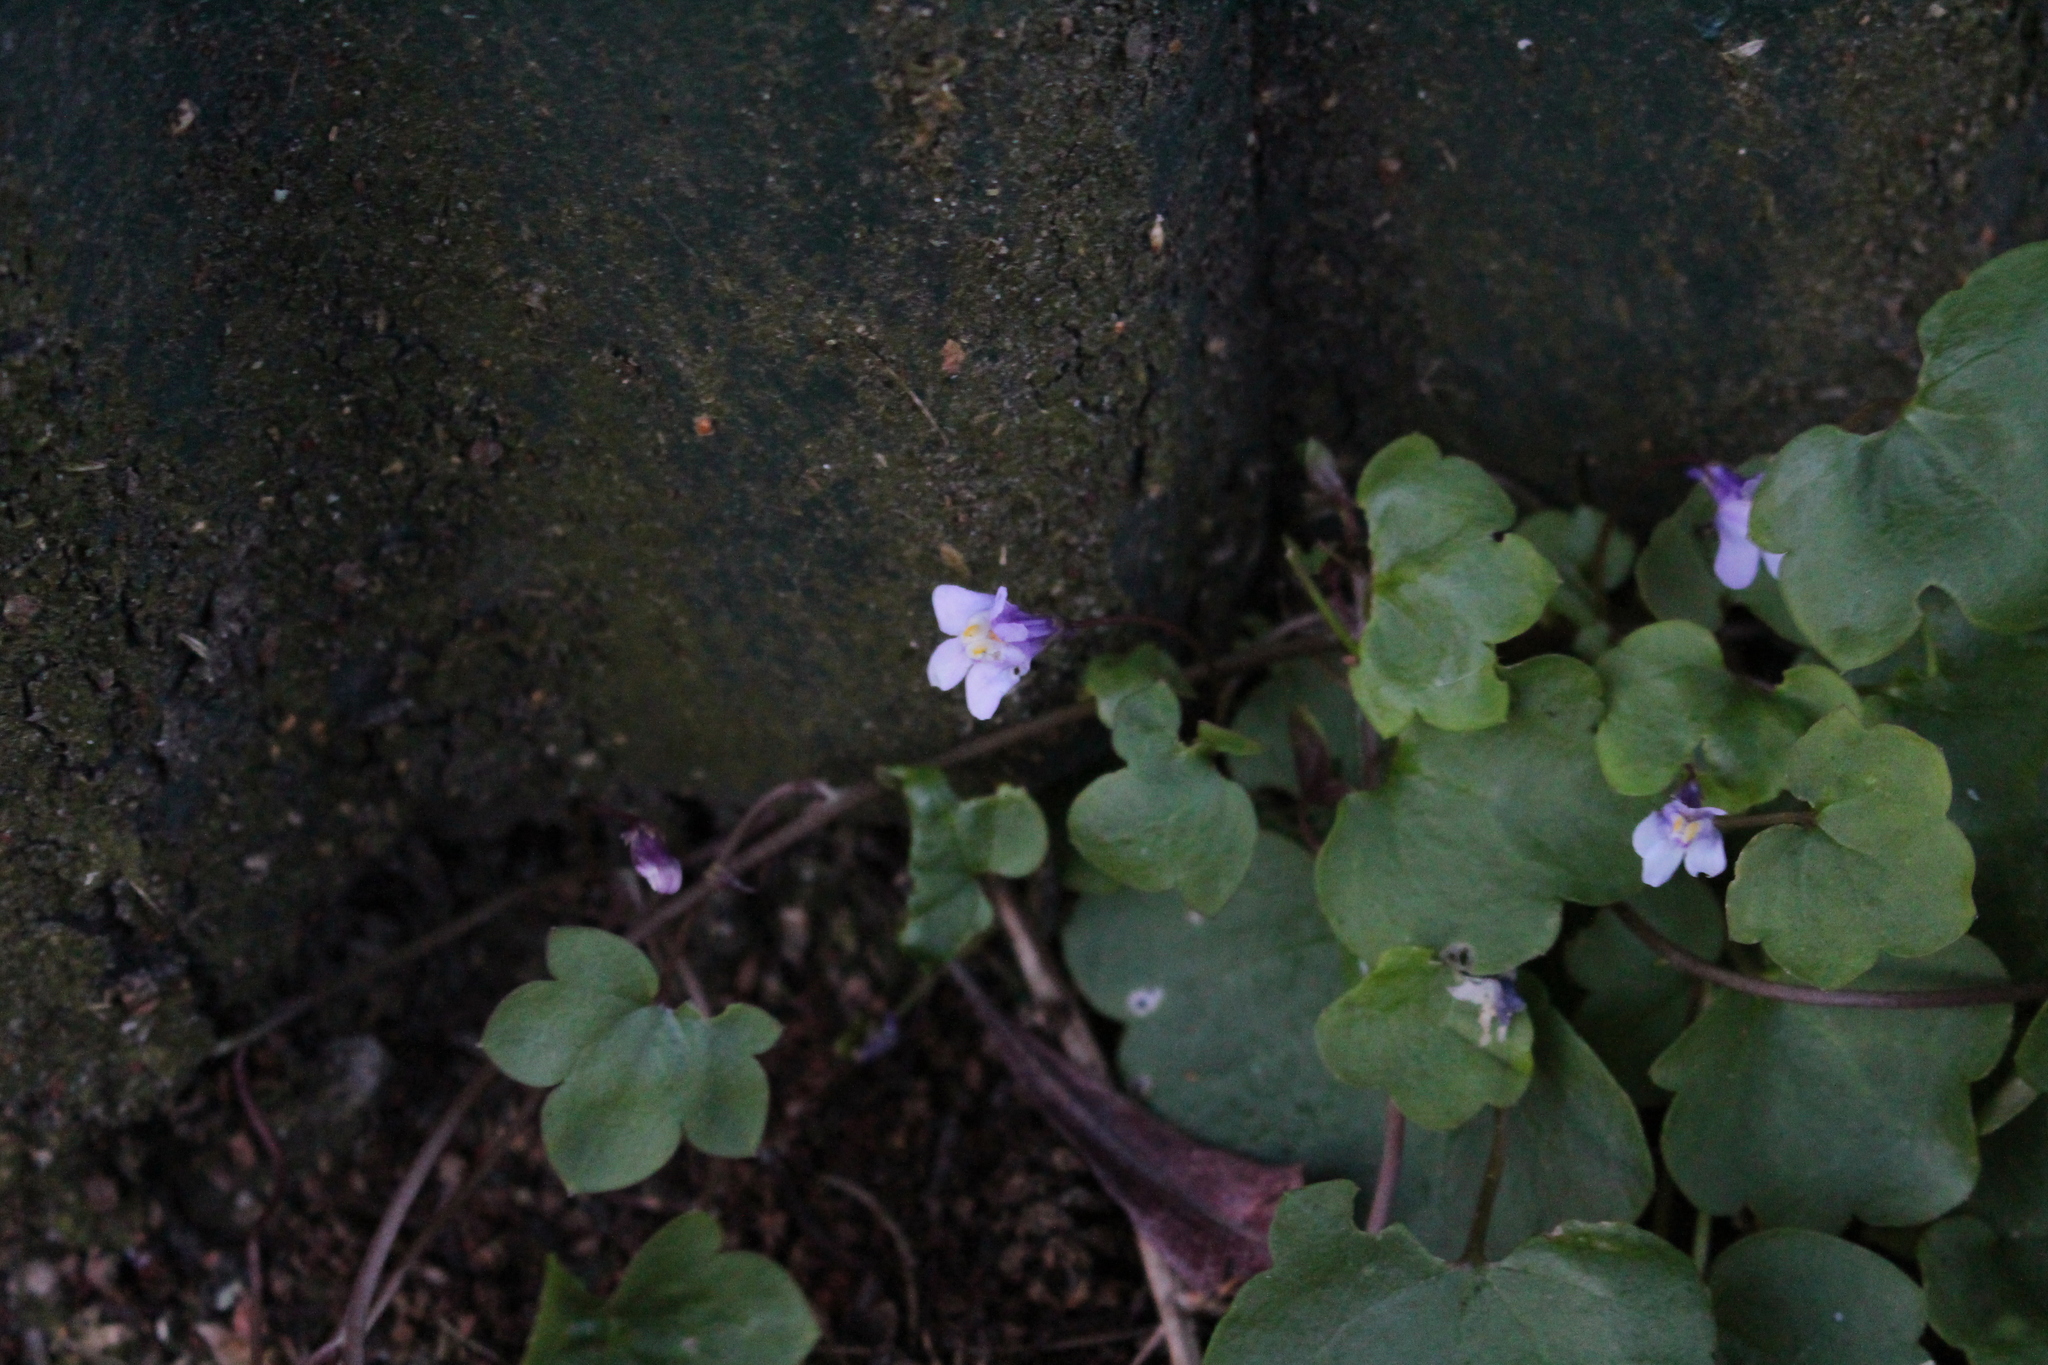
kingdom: Plantae
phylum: Tracheophyta
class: Magnoliopsida
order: Lamiales
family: Plantaginaceae
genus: Cymbalaria
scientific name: Cymbalaria muralis
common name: Ivy-leaved toadflax
